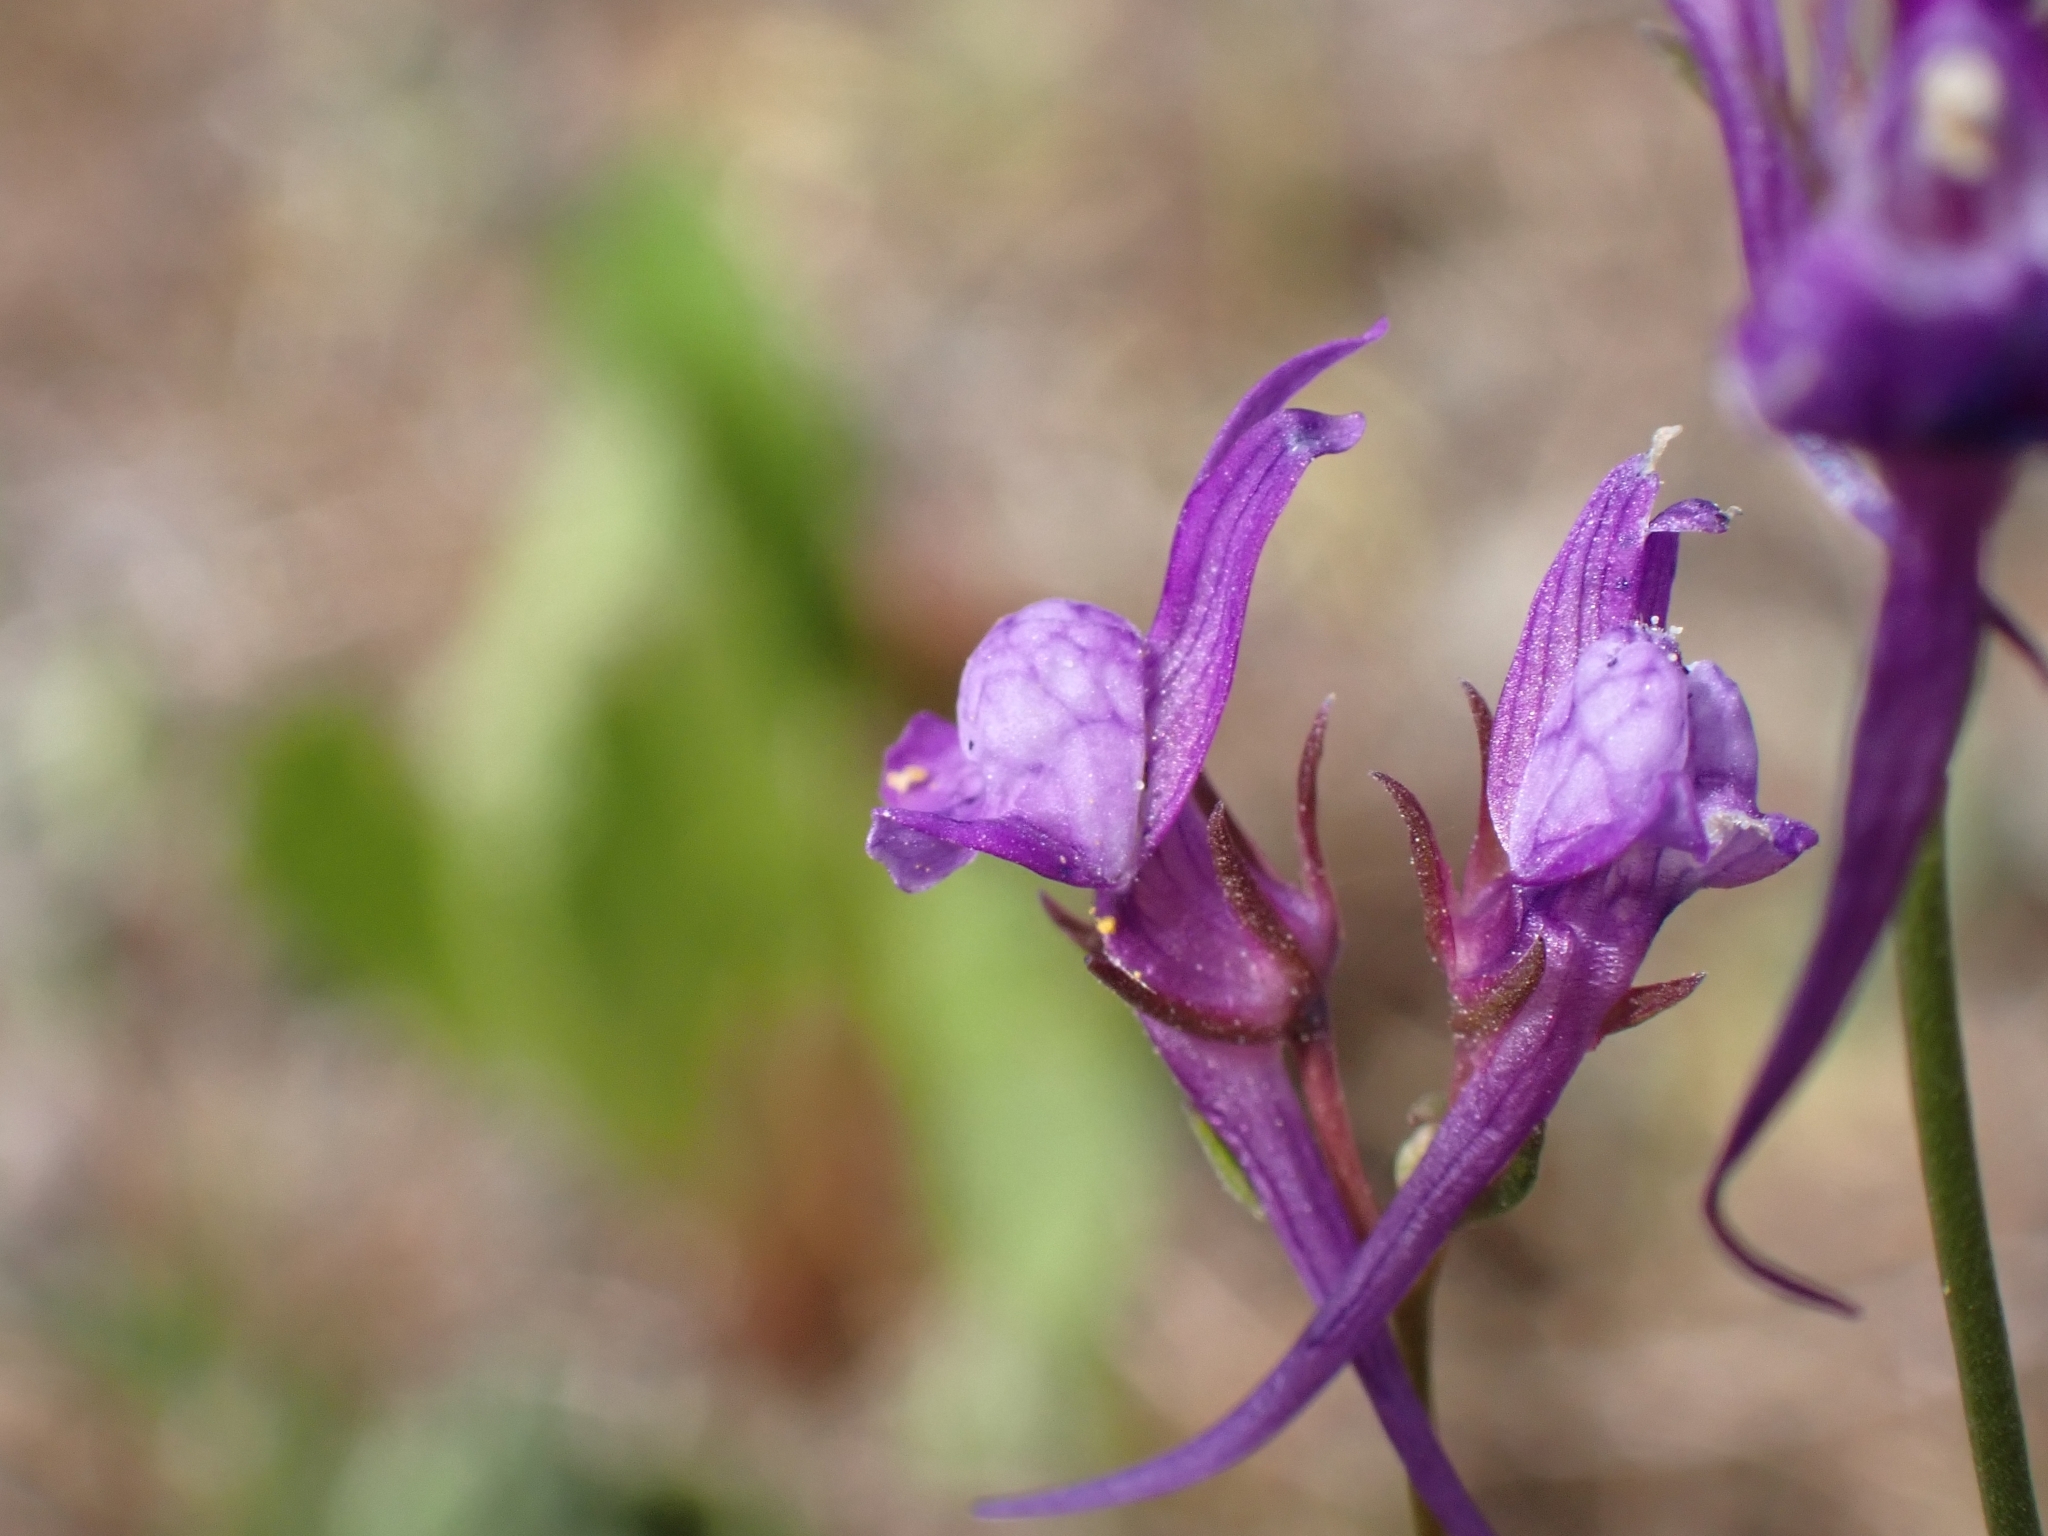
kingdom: Plantae
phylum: Tracheophyta
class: Magnoliopsida
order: Lamiales
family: Plantaginaceae
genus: Linaria
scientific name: Linaria pelisseriana
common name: Jersey toadflax
